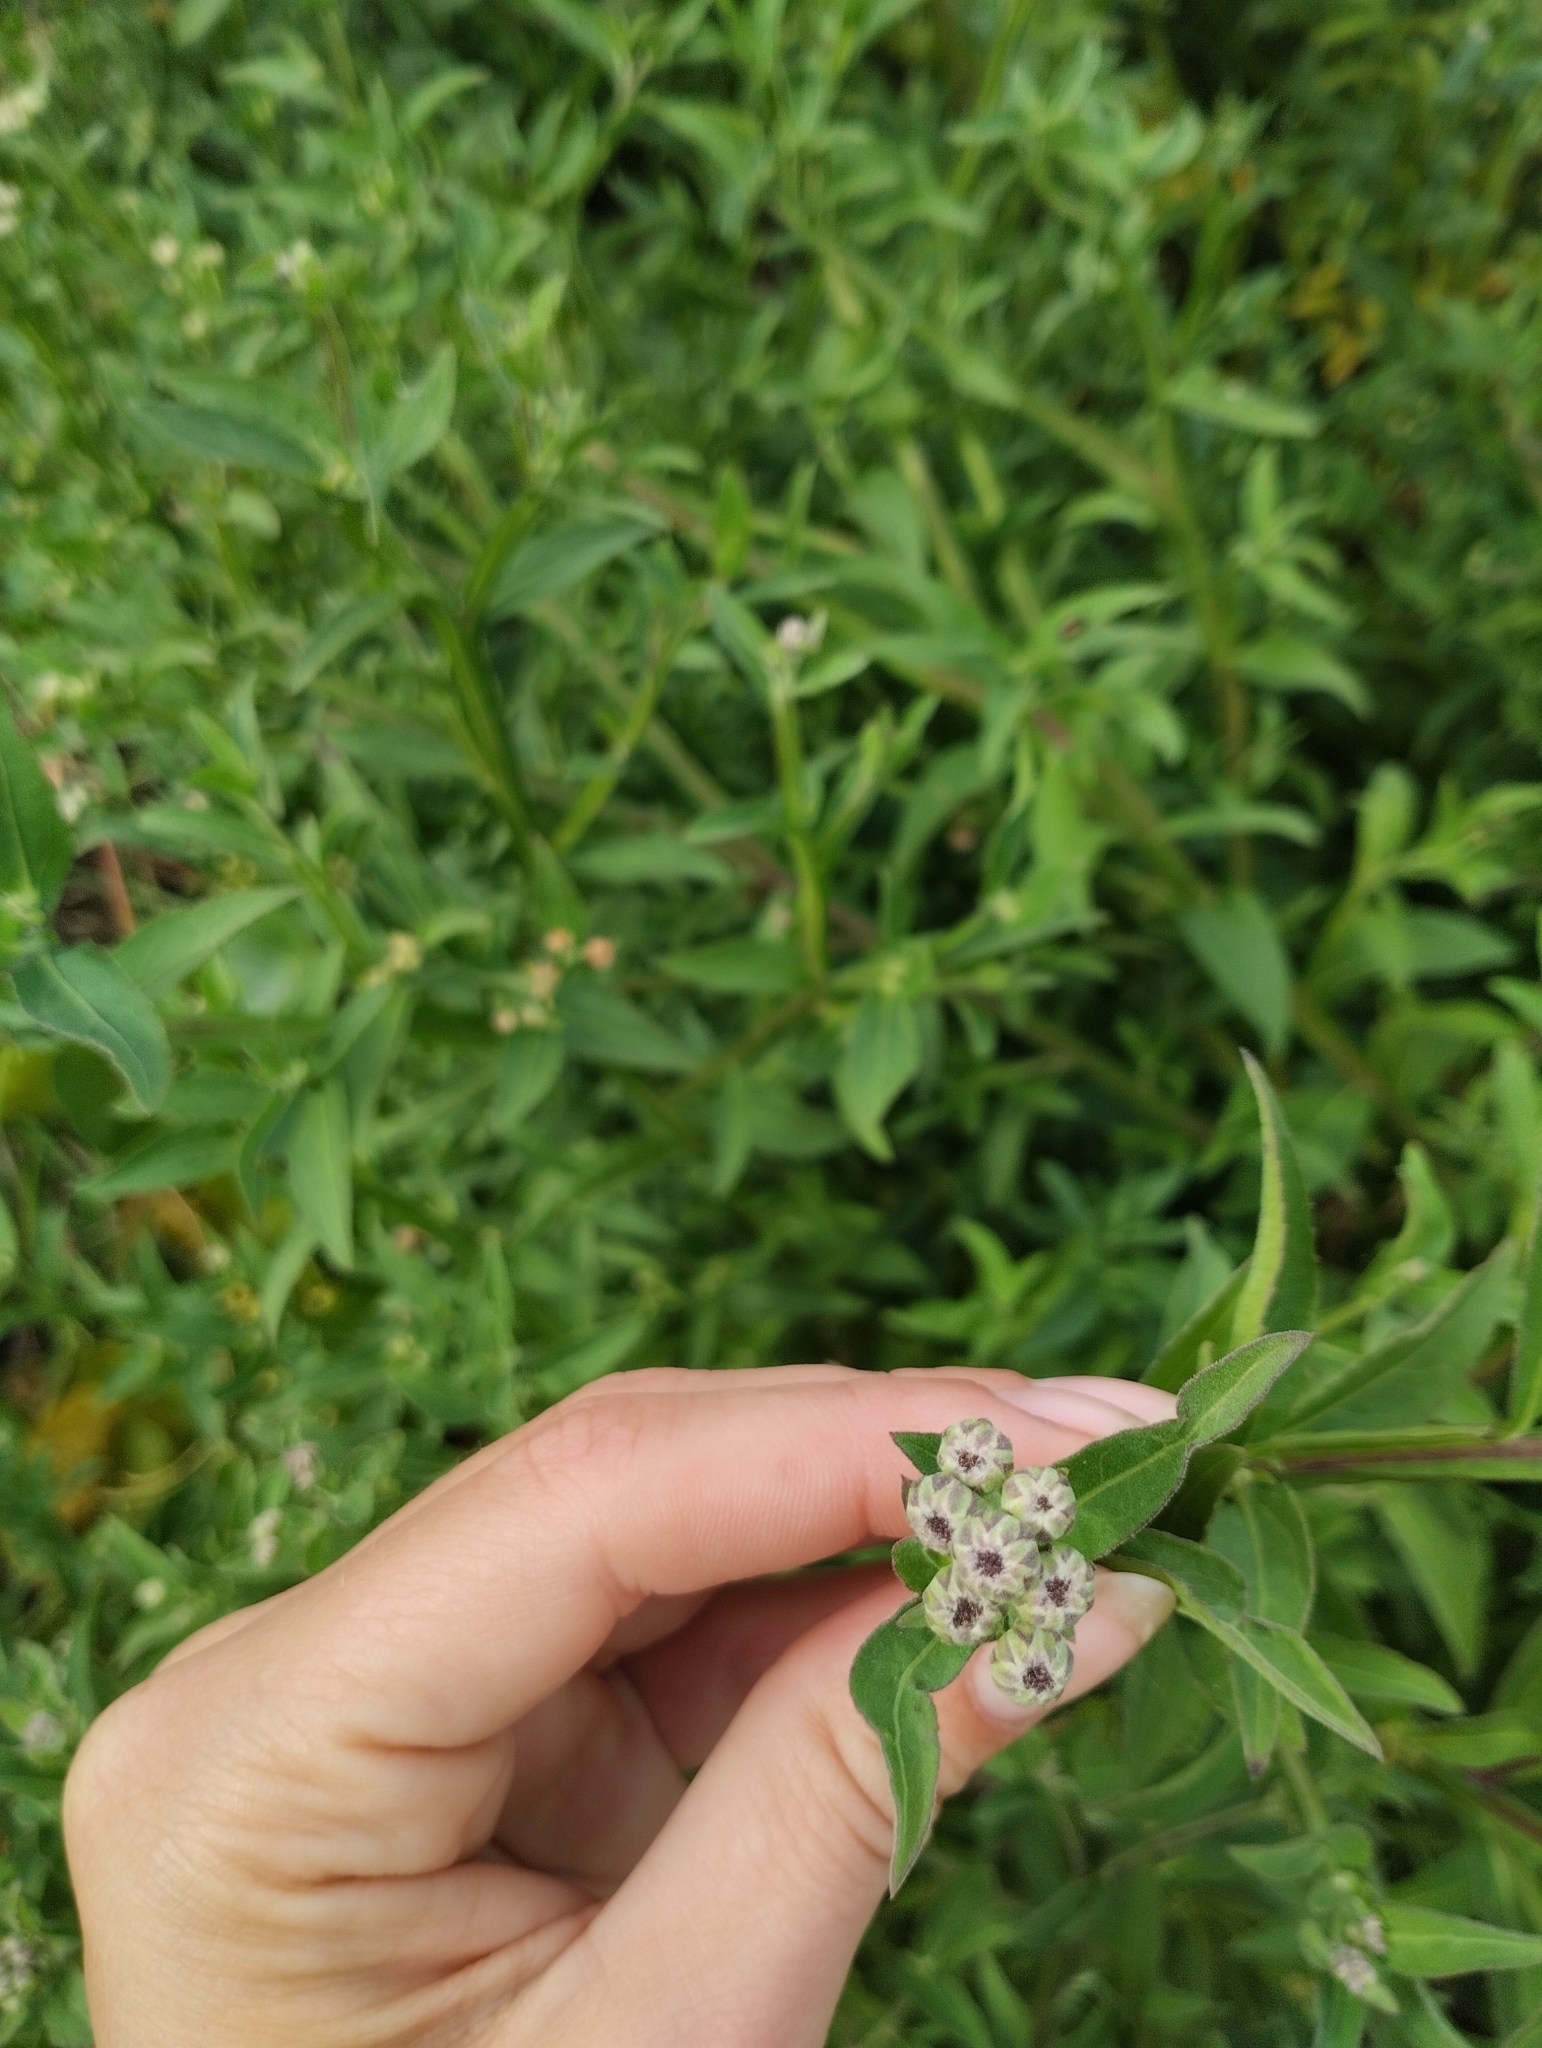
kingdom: Plantae
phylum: Tracheophyta
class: Magnoliopsida
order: Asterales
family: Asteraceae
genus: Pluchea
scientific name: Pluchea sagittalis
